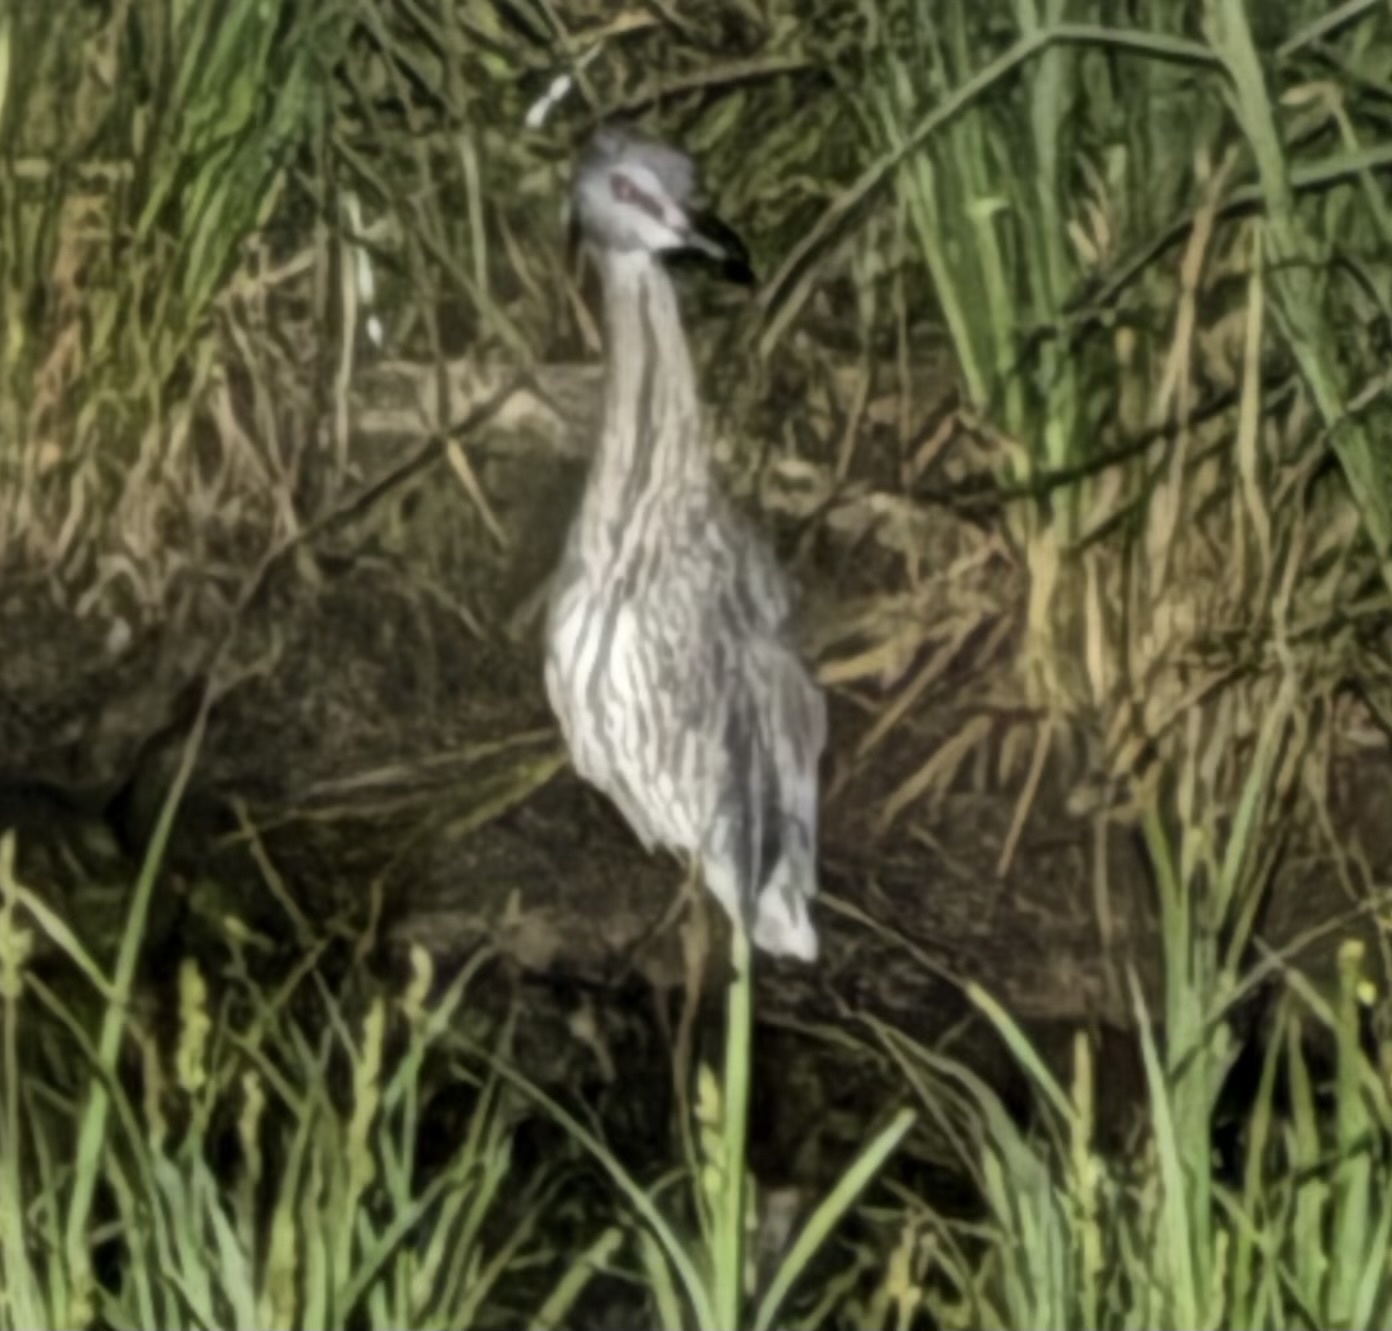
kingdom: Animalia
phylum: Chordata
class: Aves
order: Pelecaniformes
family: Ardeidae
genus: Nyctanassa
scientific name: Nyctanassa violacea
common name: Yellow-crowned night heron
